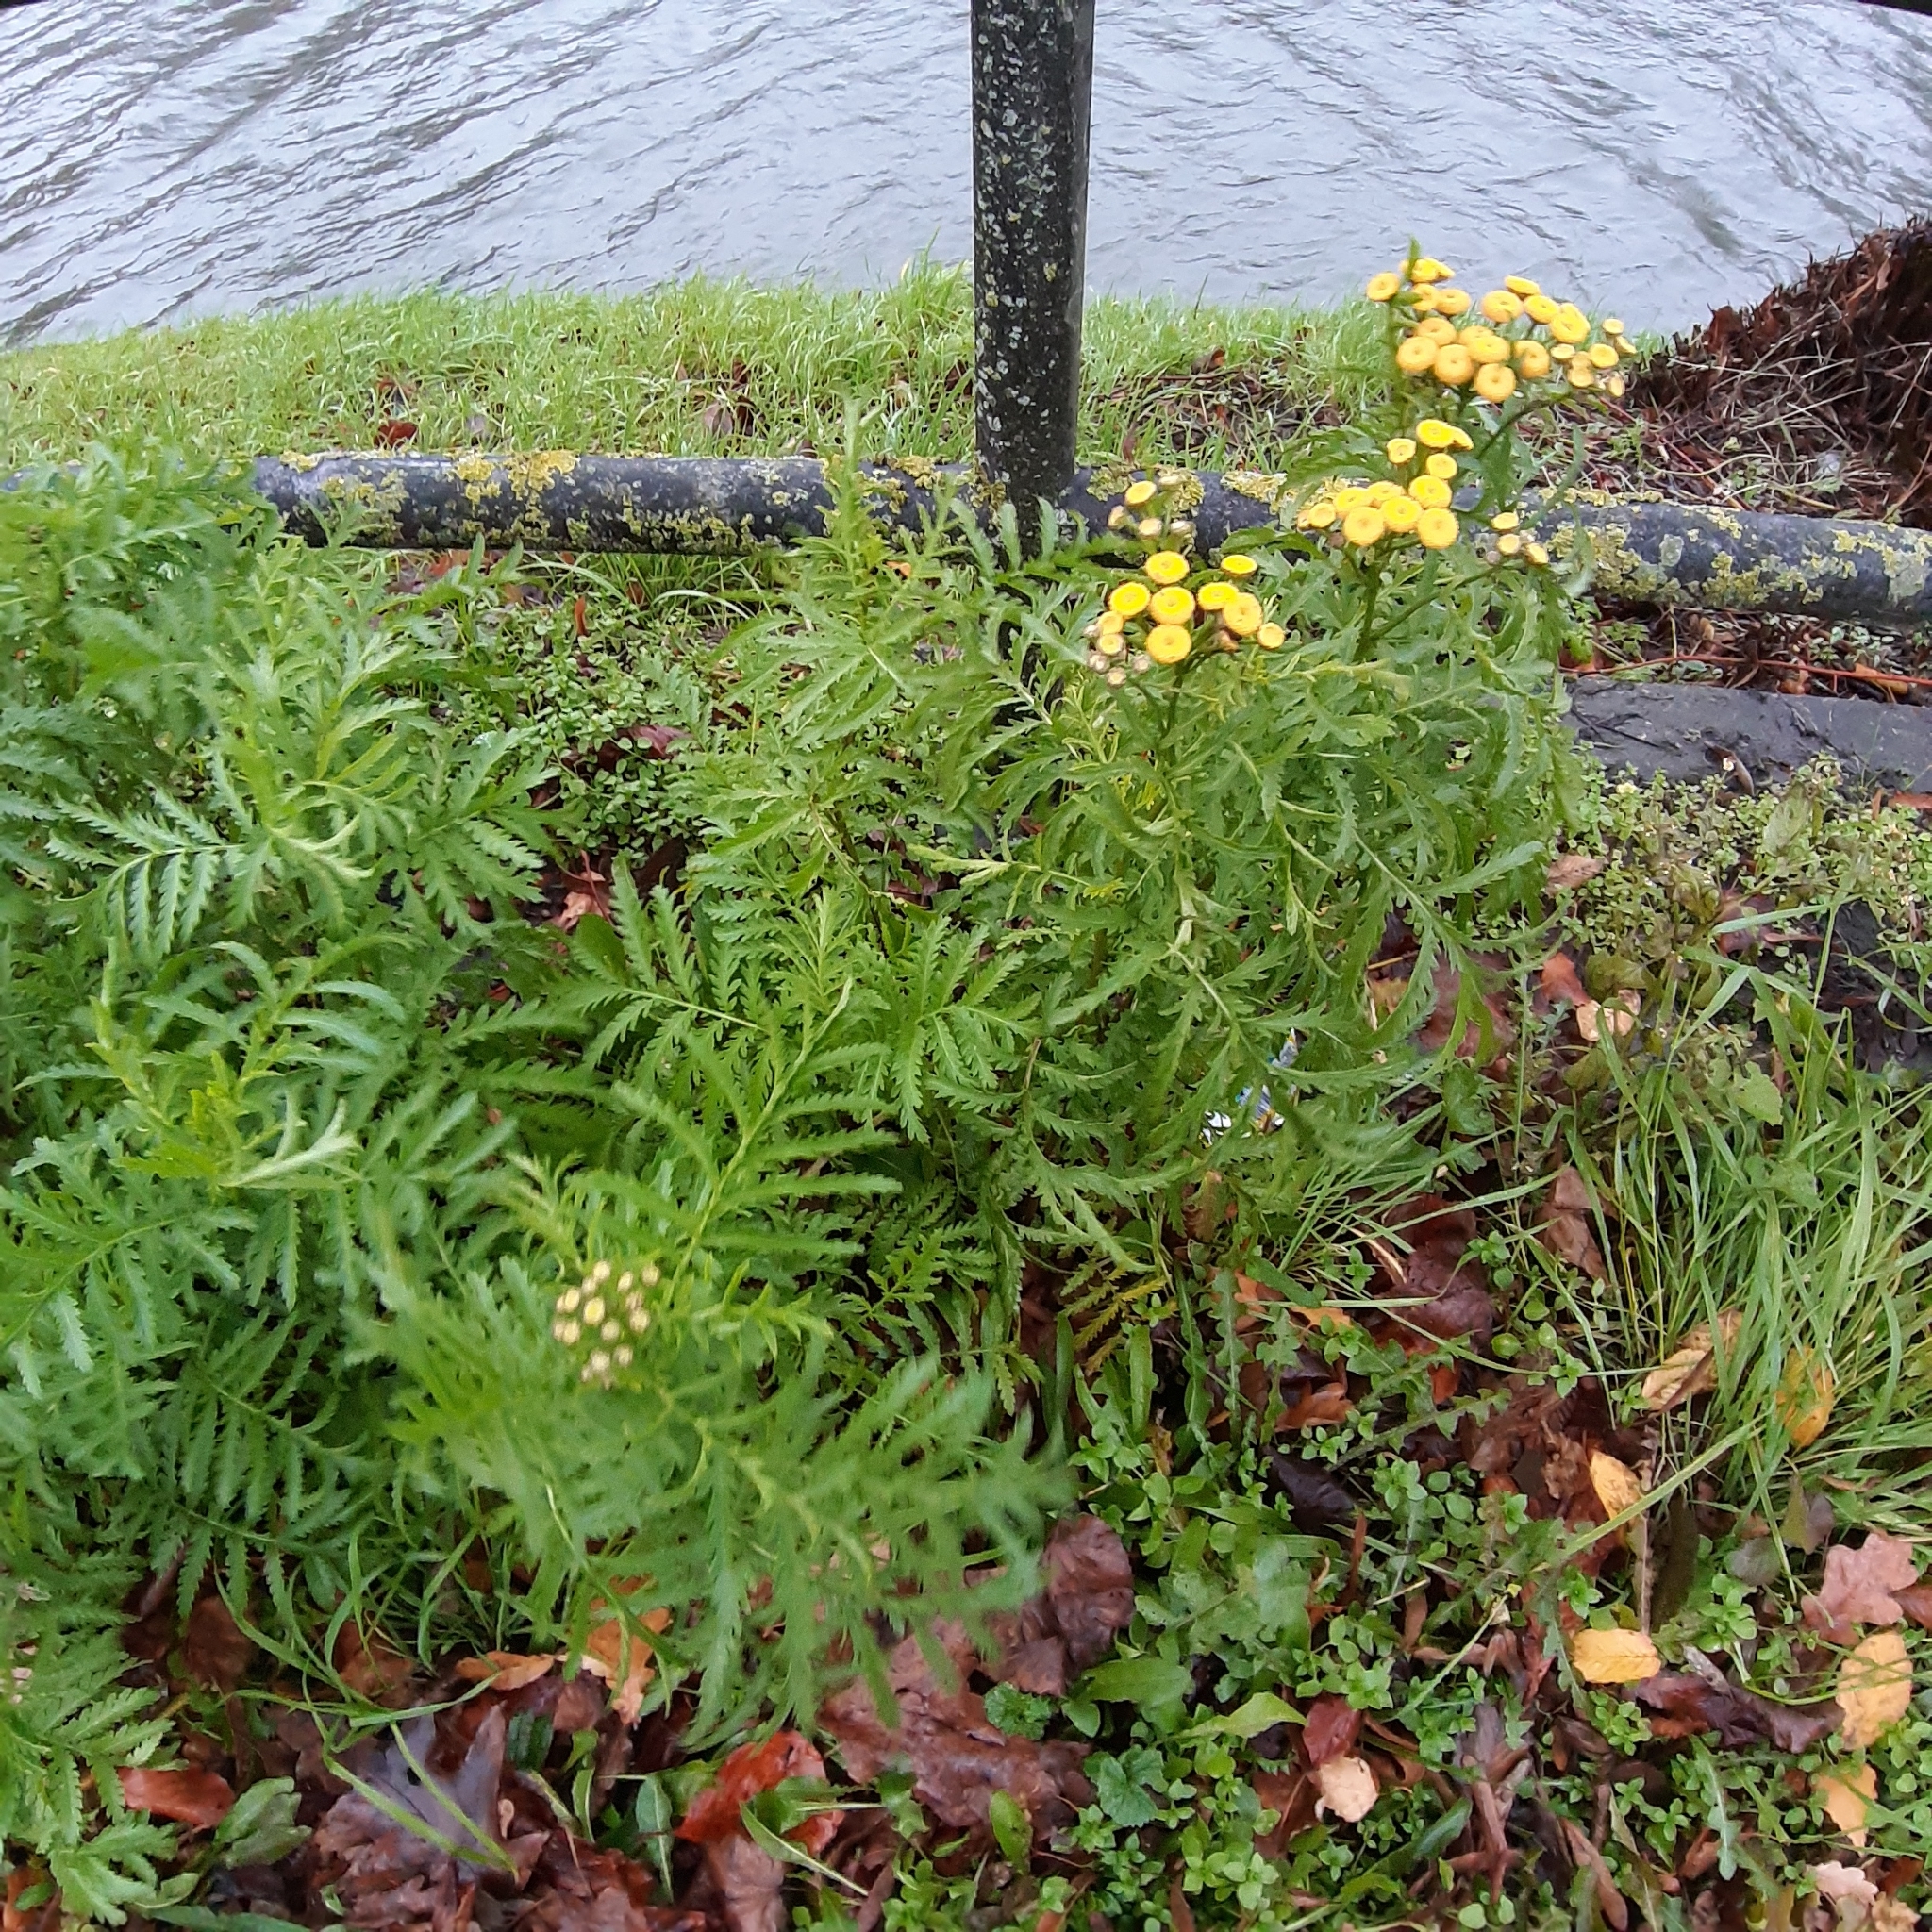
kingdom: Plantae
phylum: Tracheophyta
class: Magnoliopsida
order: Asterales
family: Asteraceae
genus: Tanacetum
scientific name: Tanacetum vulgare
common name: Common tansy
